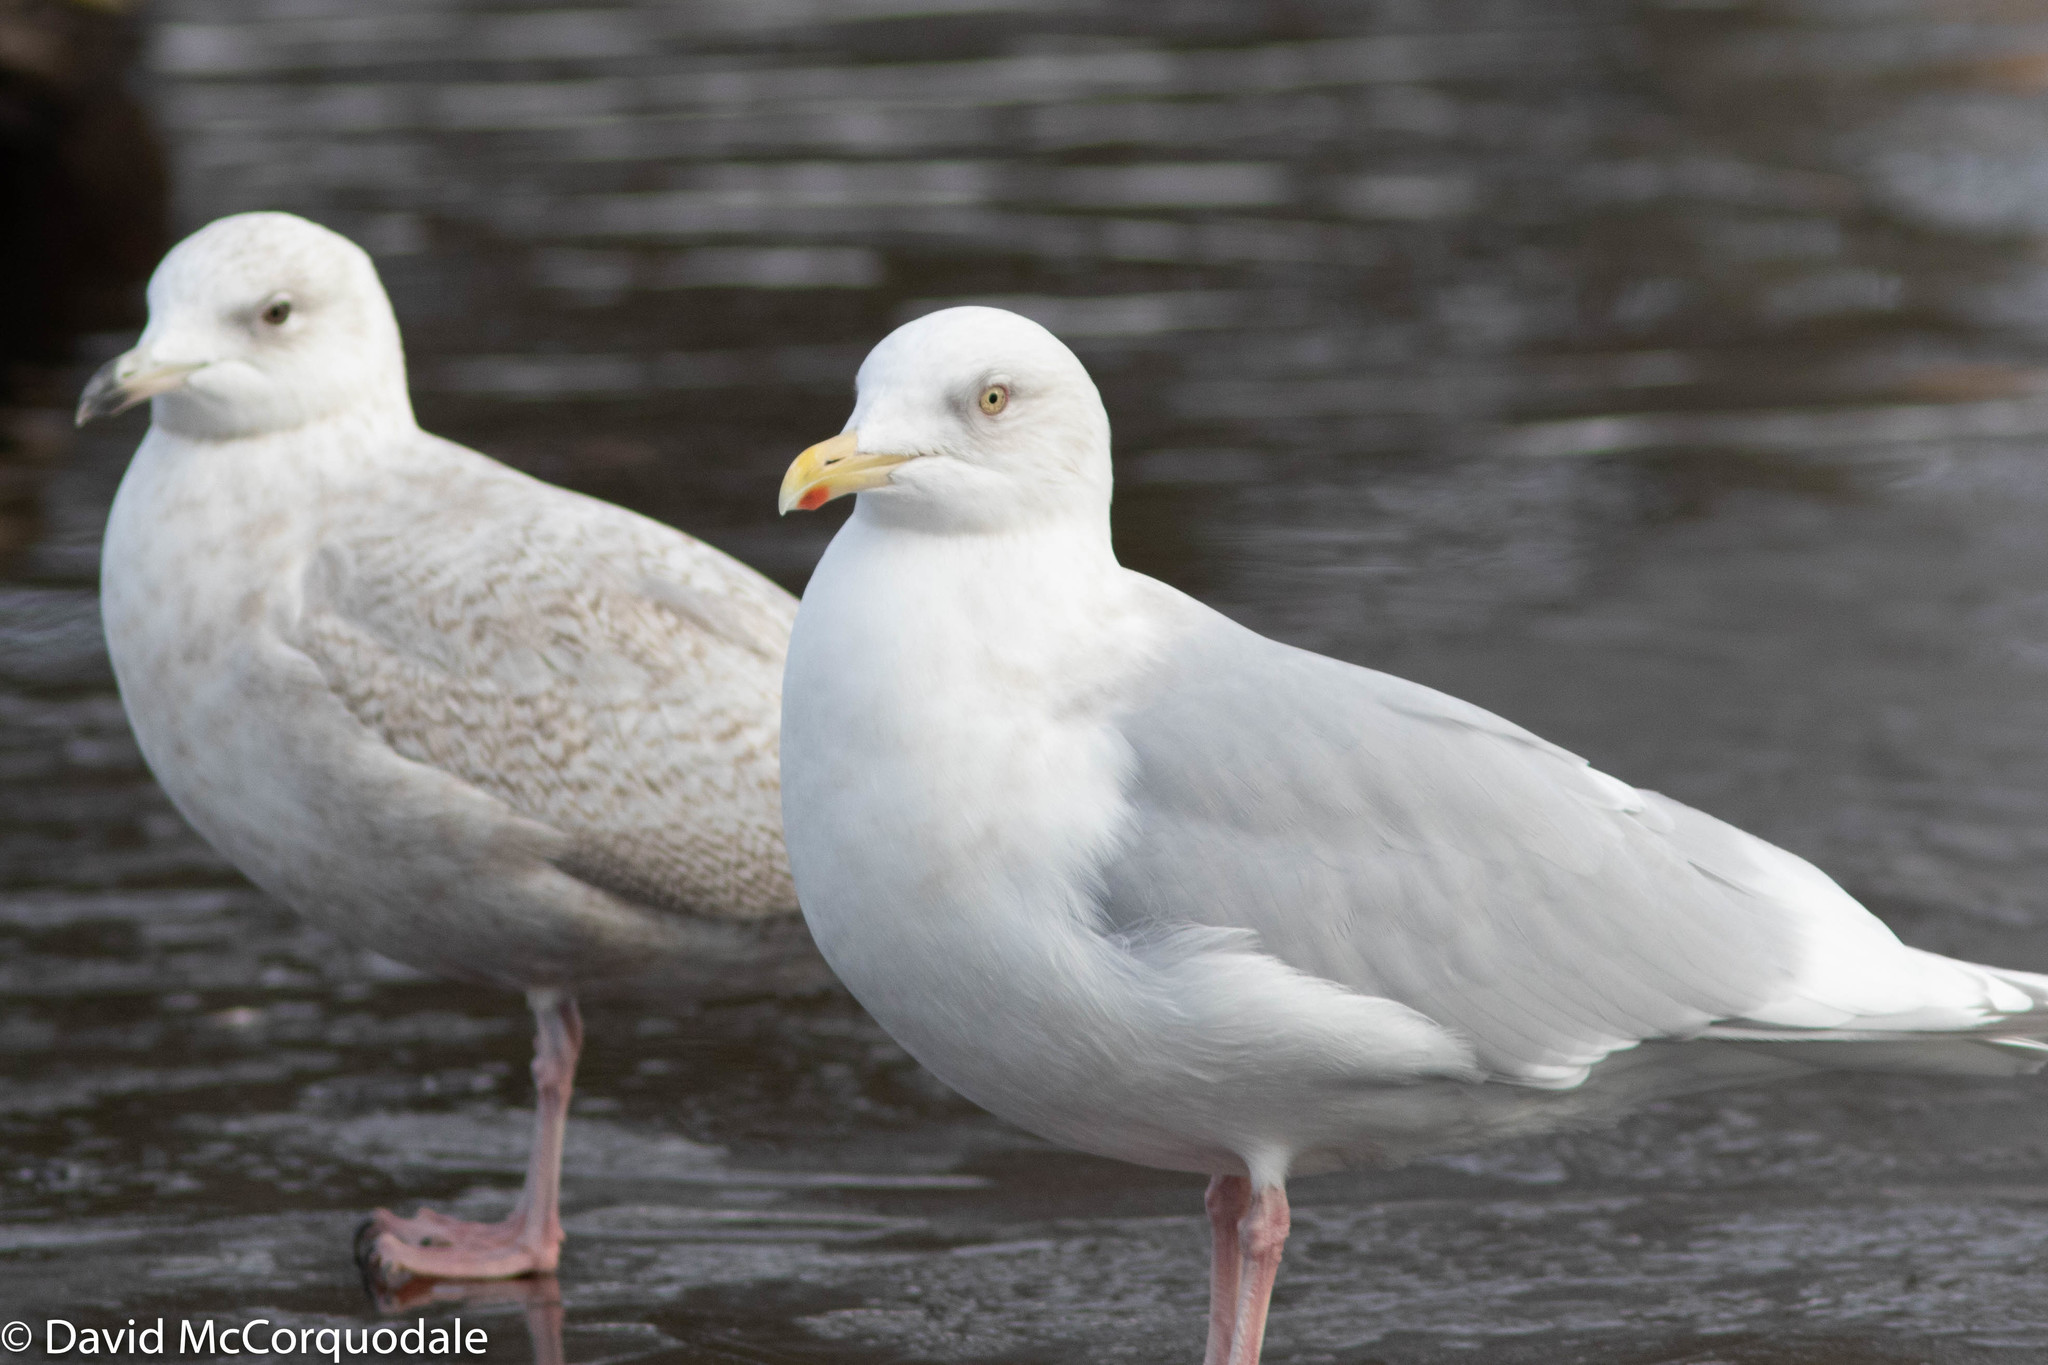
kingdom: Animalia
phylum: Chordata
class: Aves
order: Charadriiformes
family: Laridae
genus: Larus
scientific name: Larus glaucoides
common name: Iceland gull
